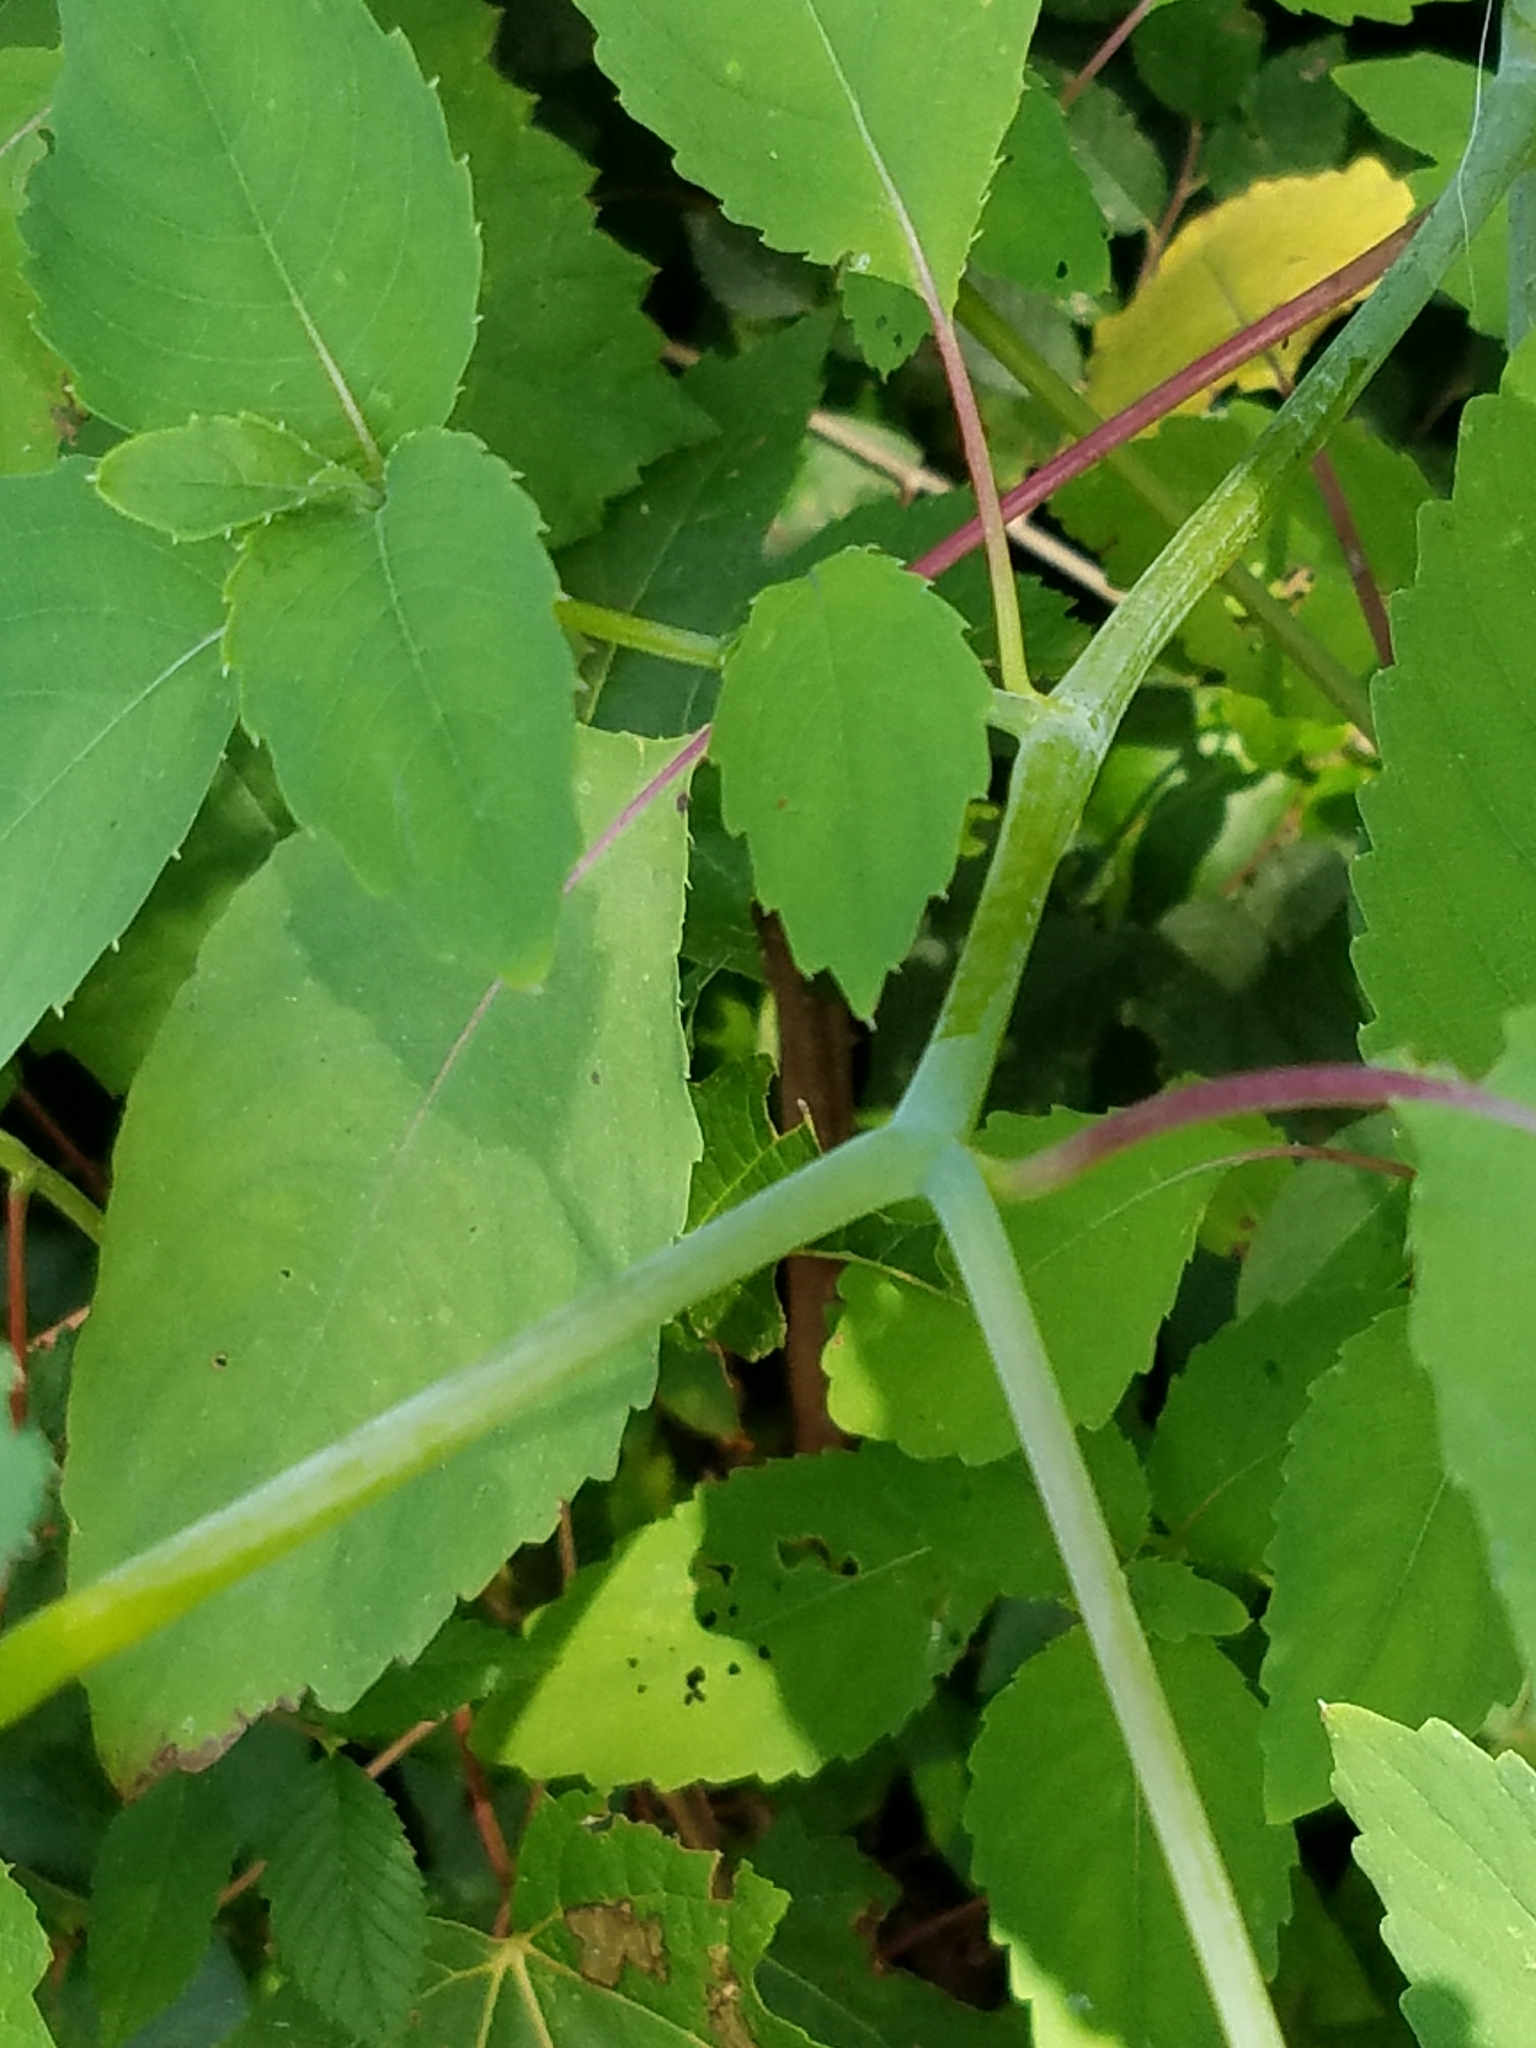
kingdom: Plantae
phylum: Tracheophyta
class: Magnoliopsida
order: Ericales
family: Balsaminaceae
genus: Impatiens
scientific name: Impatiens pallida
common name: Pale snapweed
